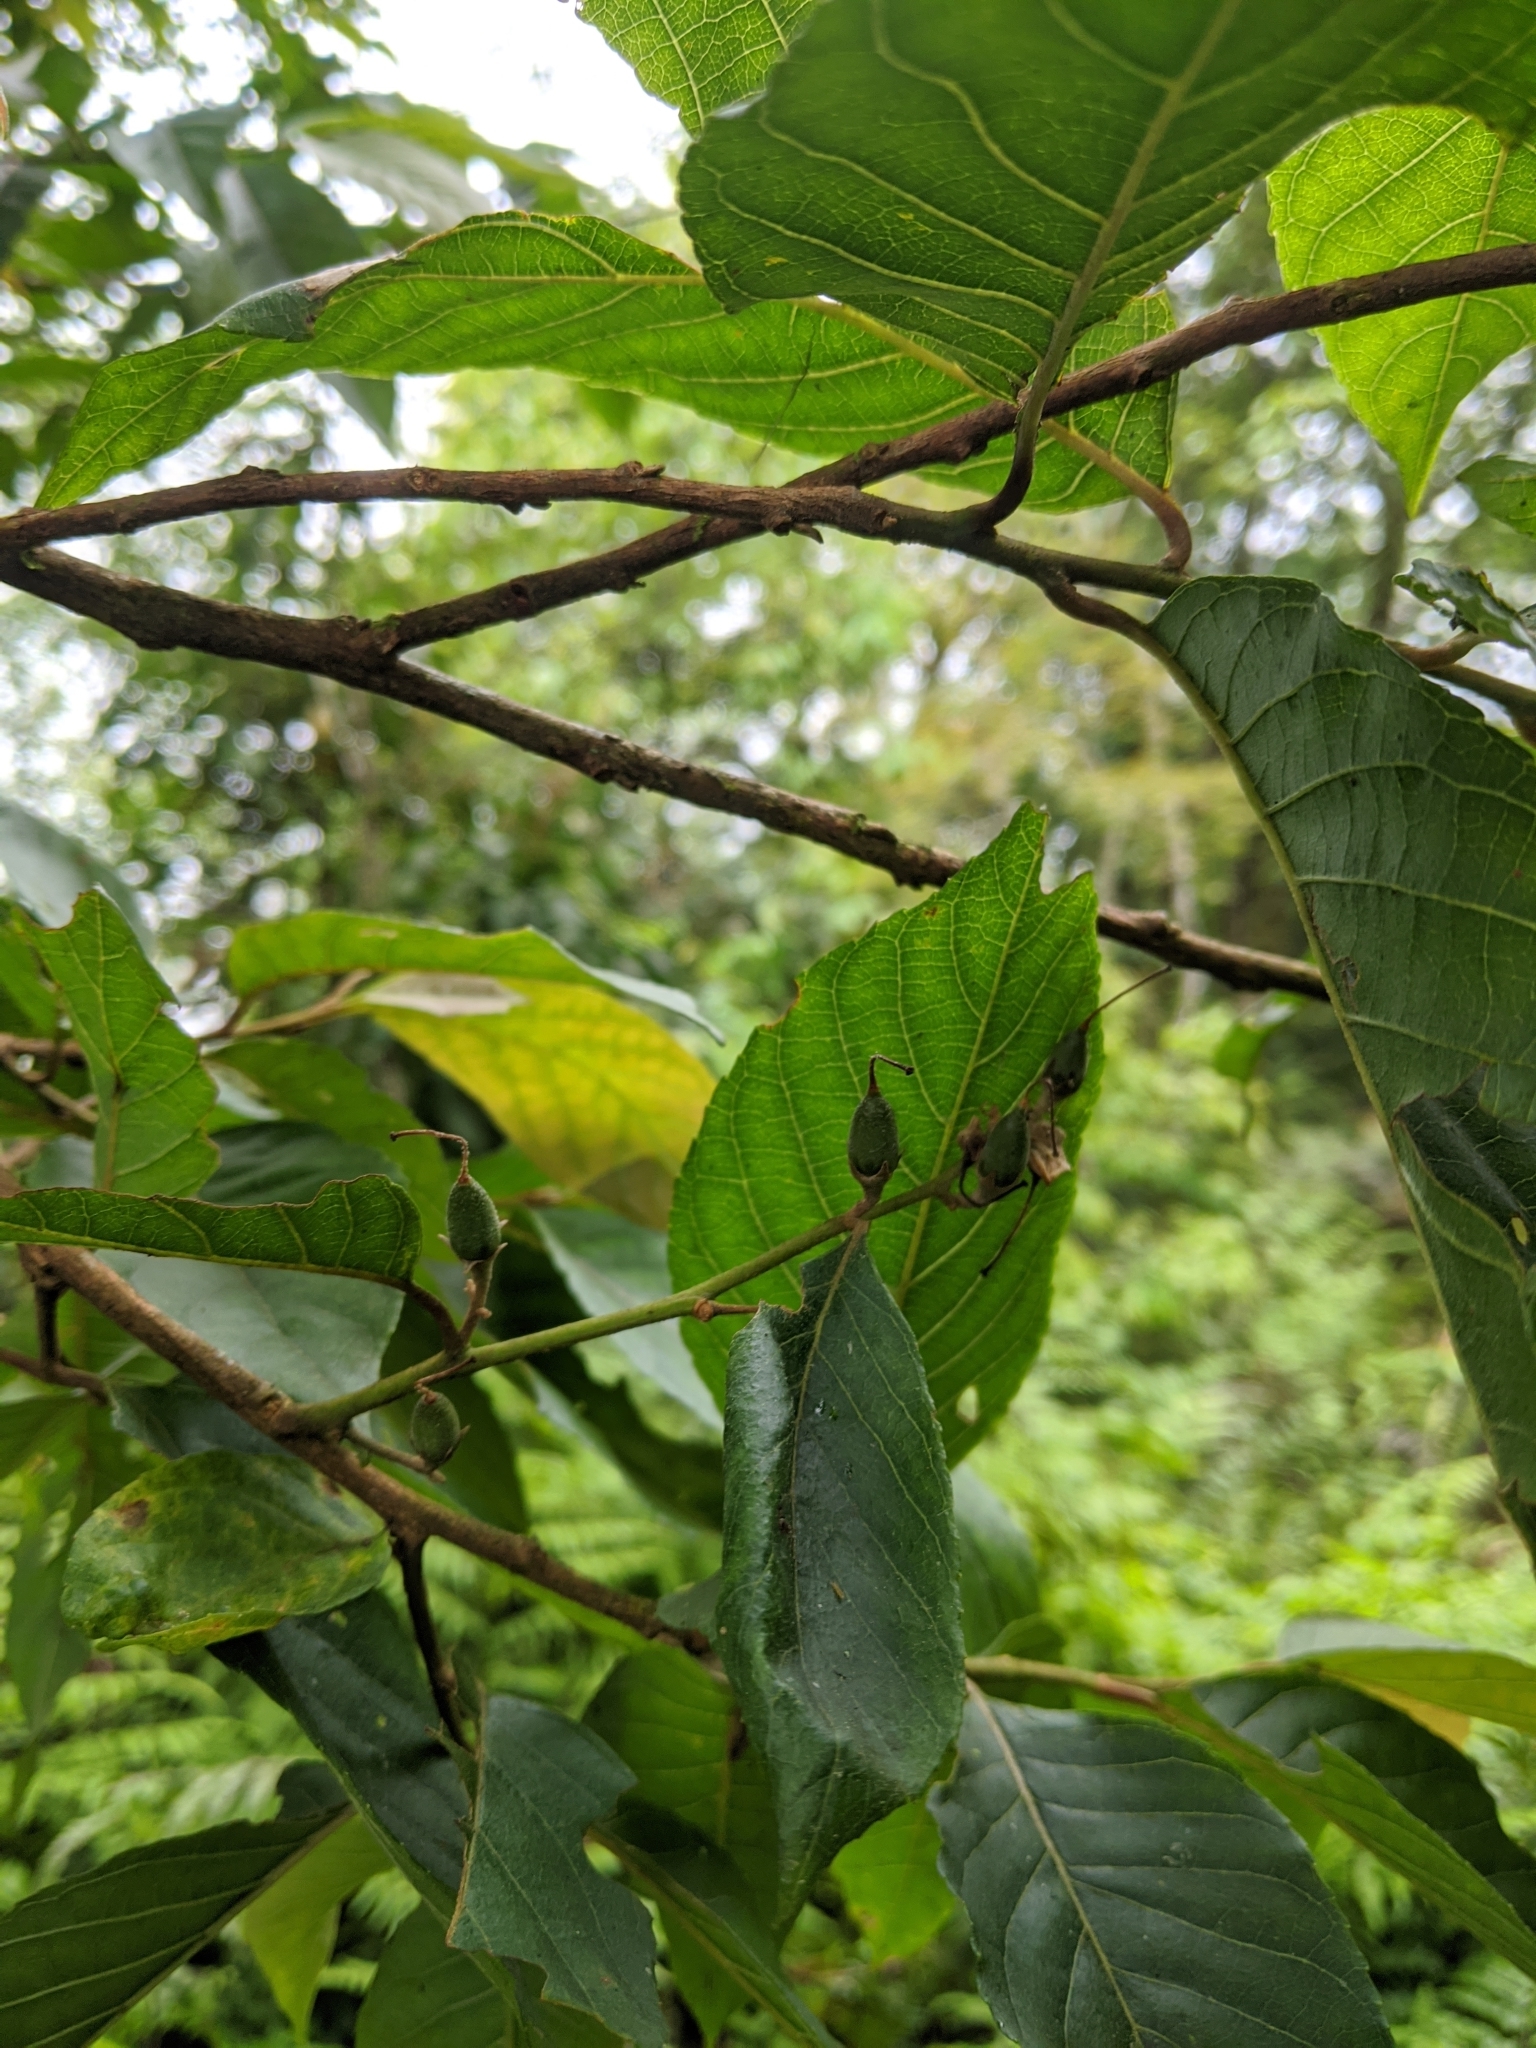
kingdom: Plantae
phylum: Tracheophyta
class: Magnoliopsida
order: Ericales
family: Styracaceae
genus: Alniphyllum
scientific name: Alniphyllum pterospermum
